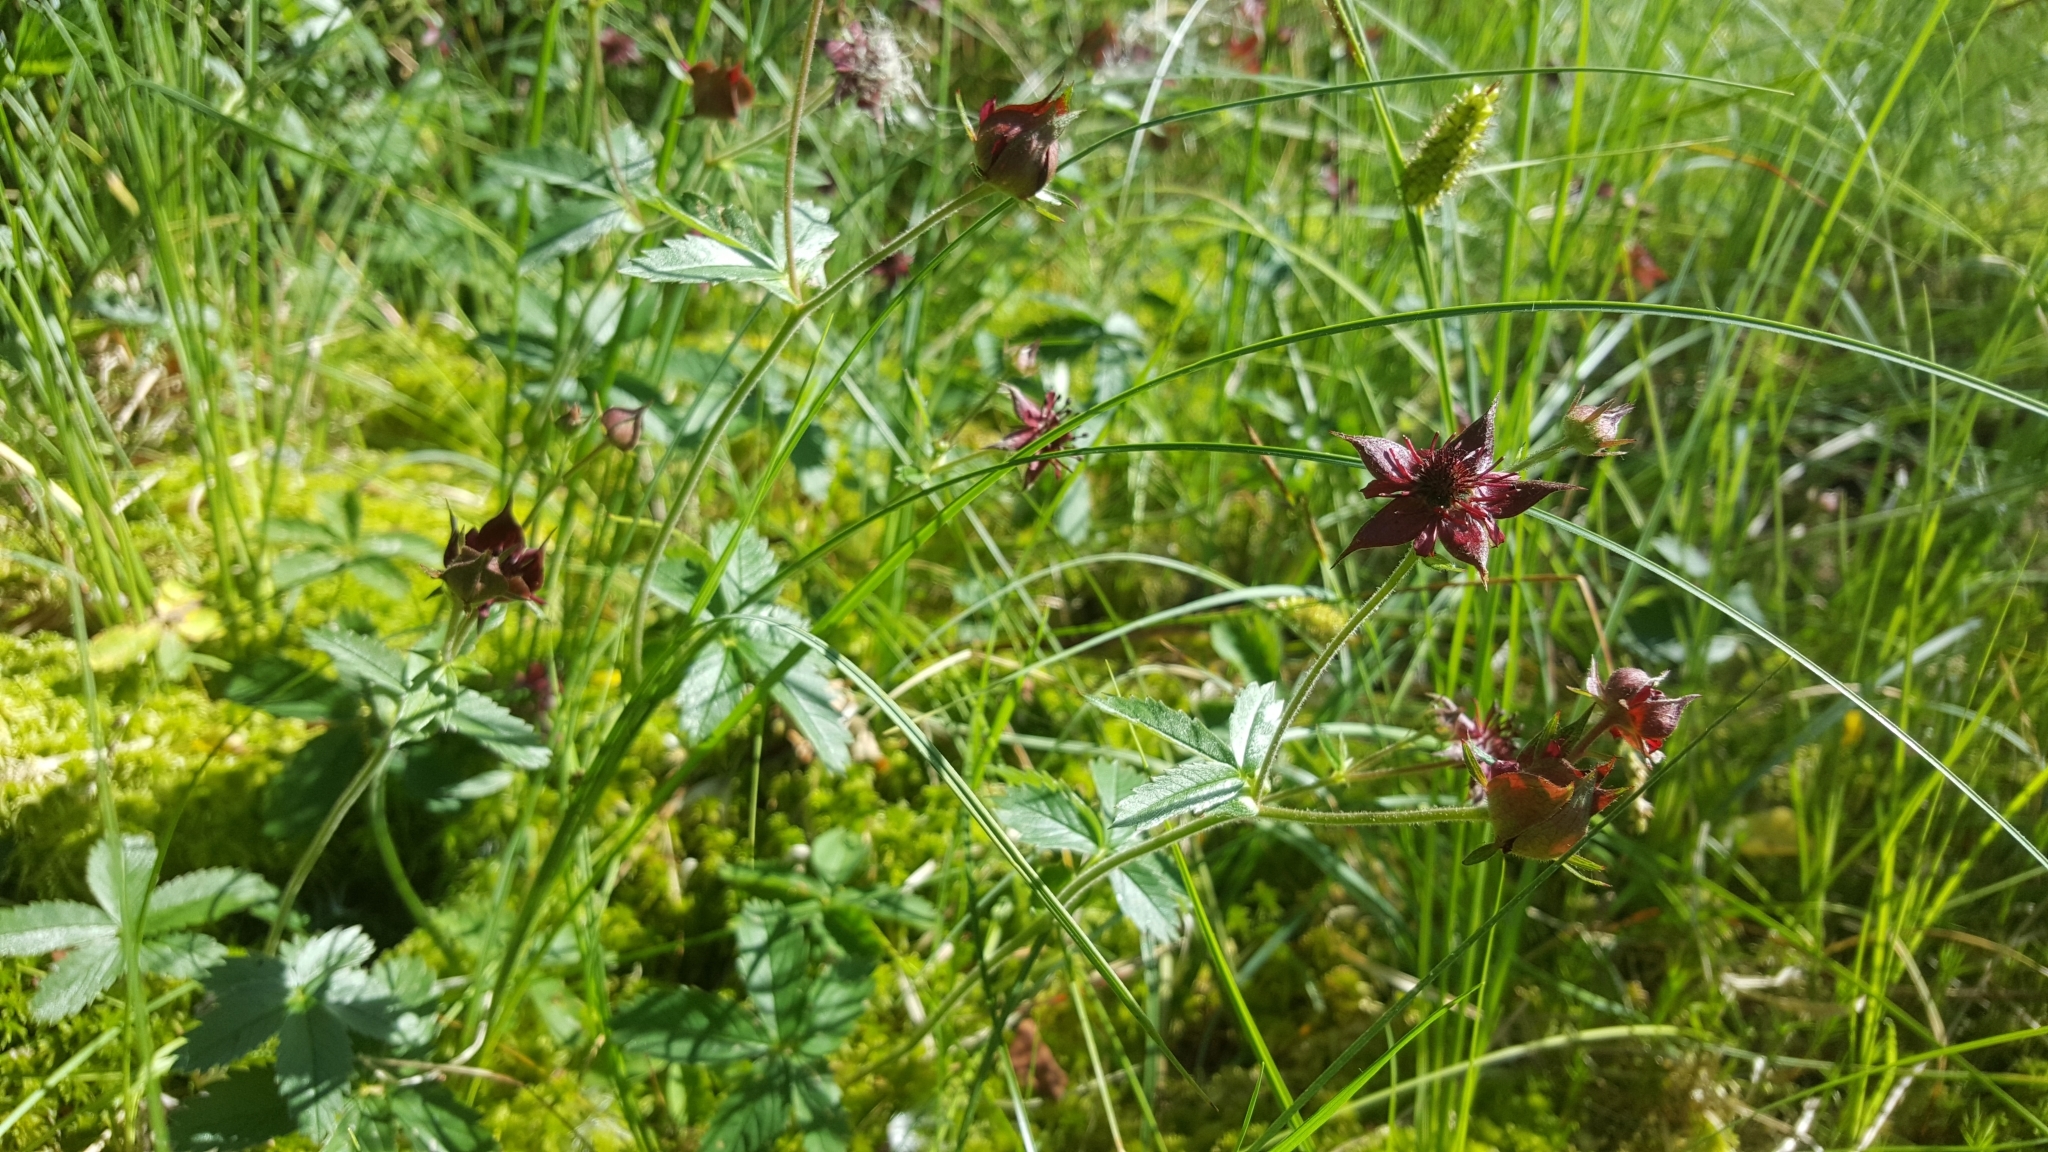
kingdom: Plantae
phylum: Tracheophyta
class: Magnoliopsida
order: Rosales
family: Rosaceae
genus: Comarum
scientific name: Comarum palustre
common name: Marsh cinquefoil
